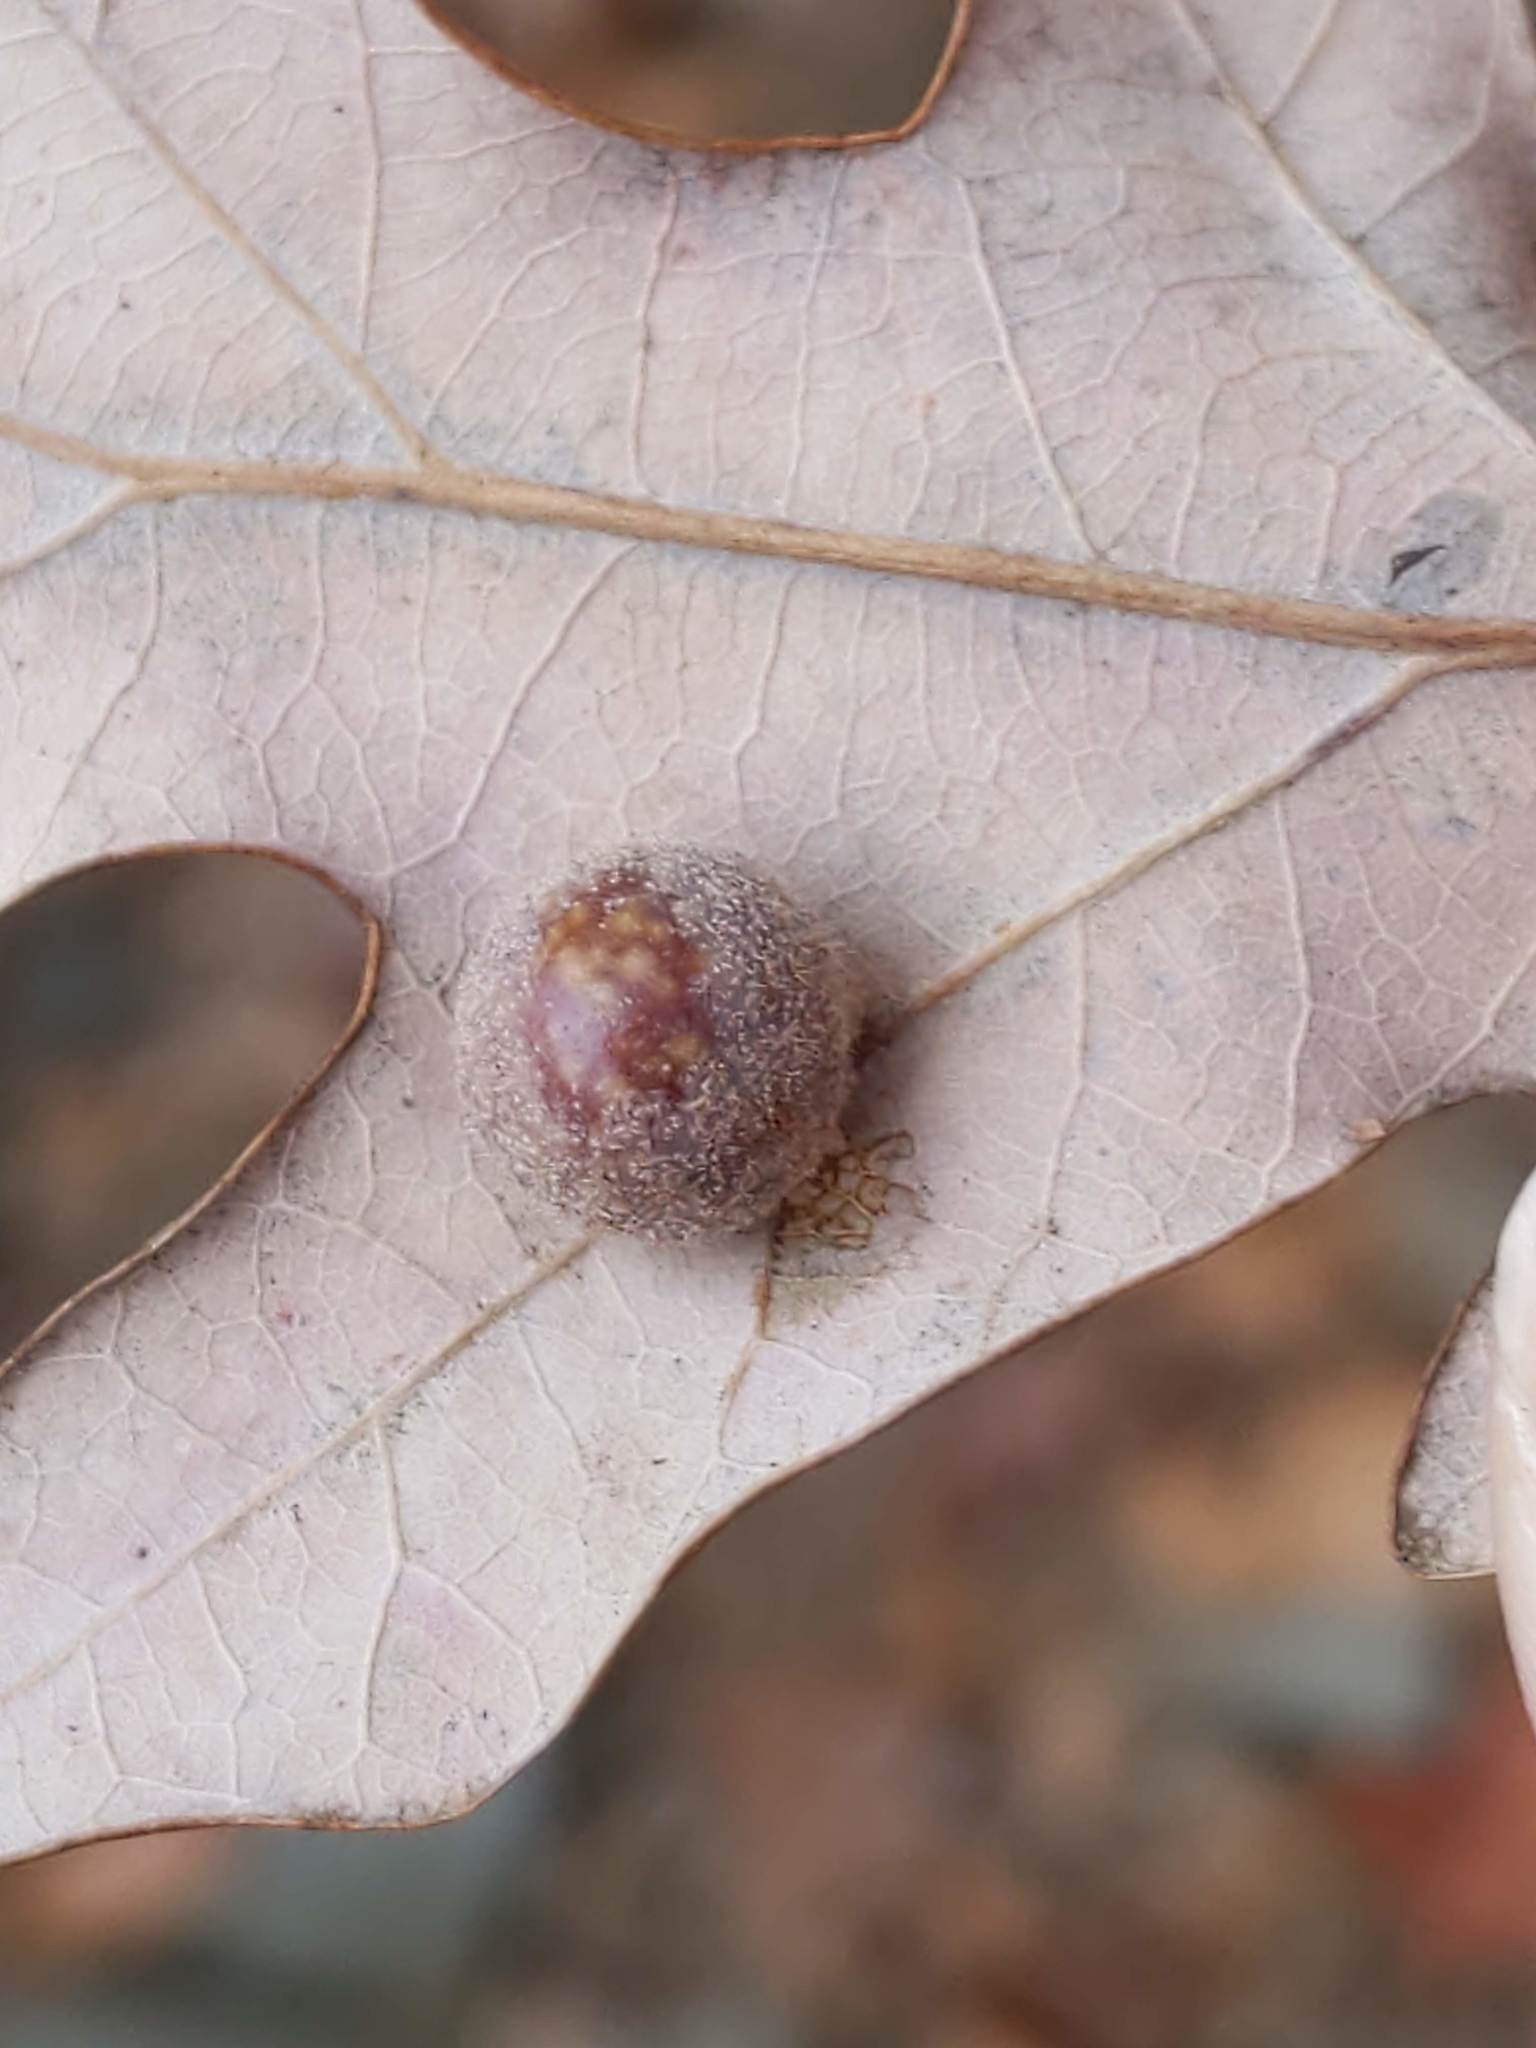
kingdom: Animalia
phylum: Arthropoda
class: Insecta
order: Hymenoptera
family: Cynipidae
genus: Philonix
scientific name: Philonix fulvicollis
